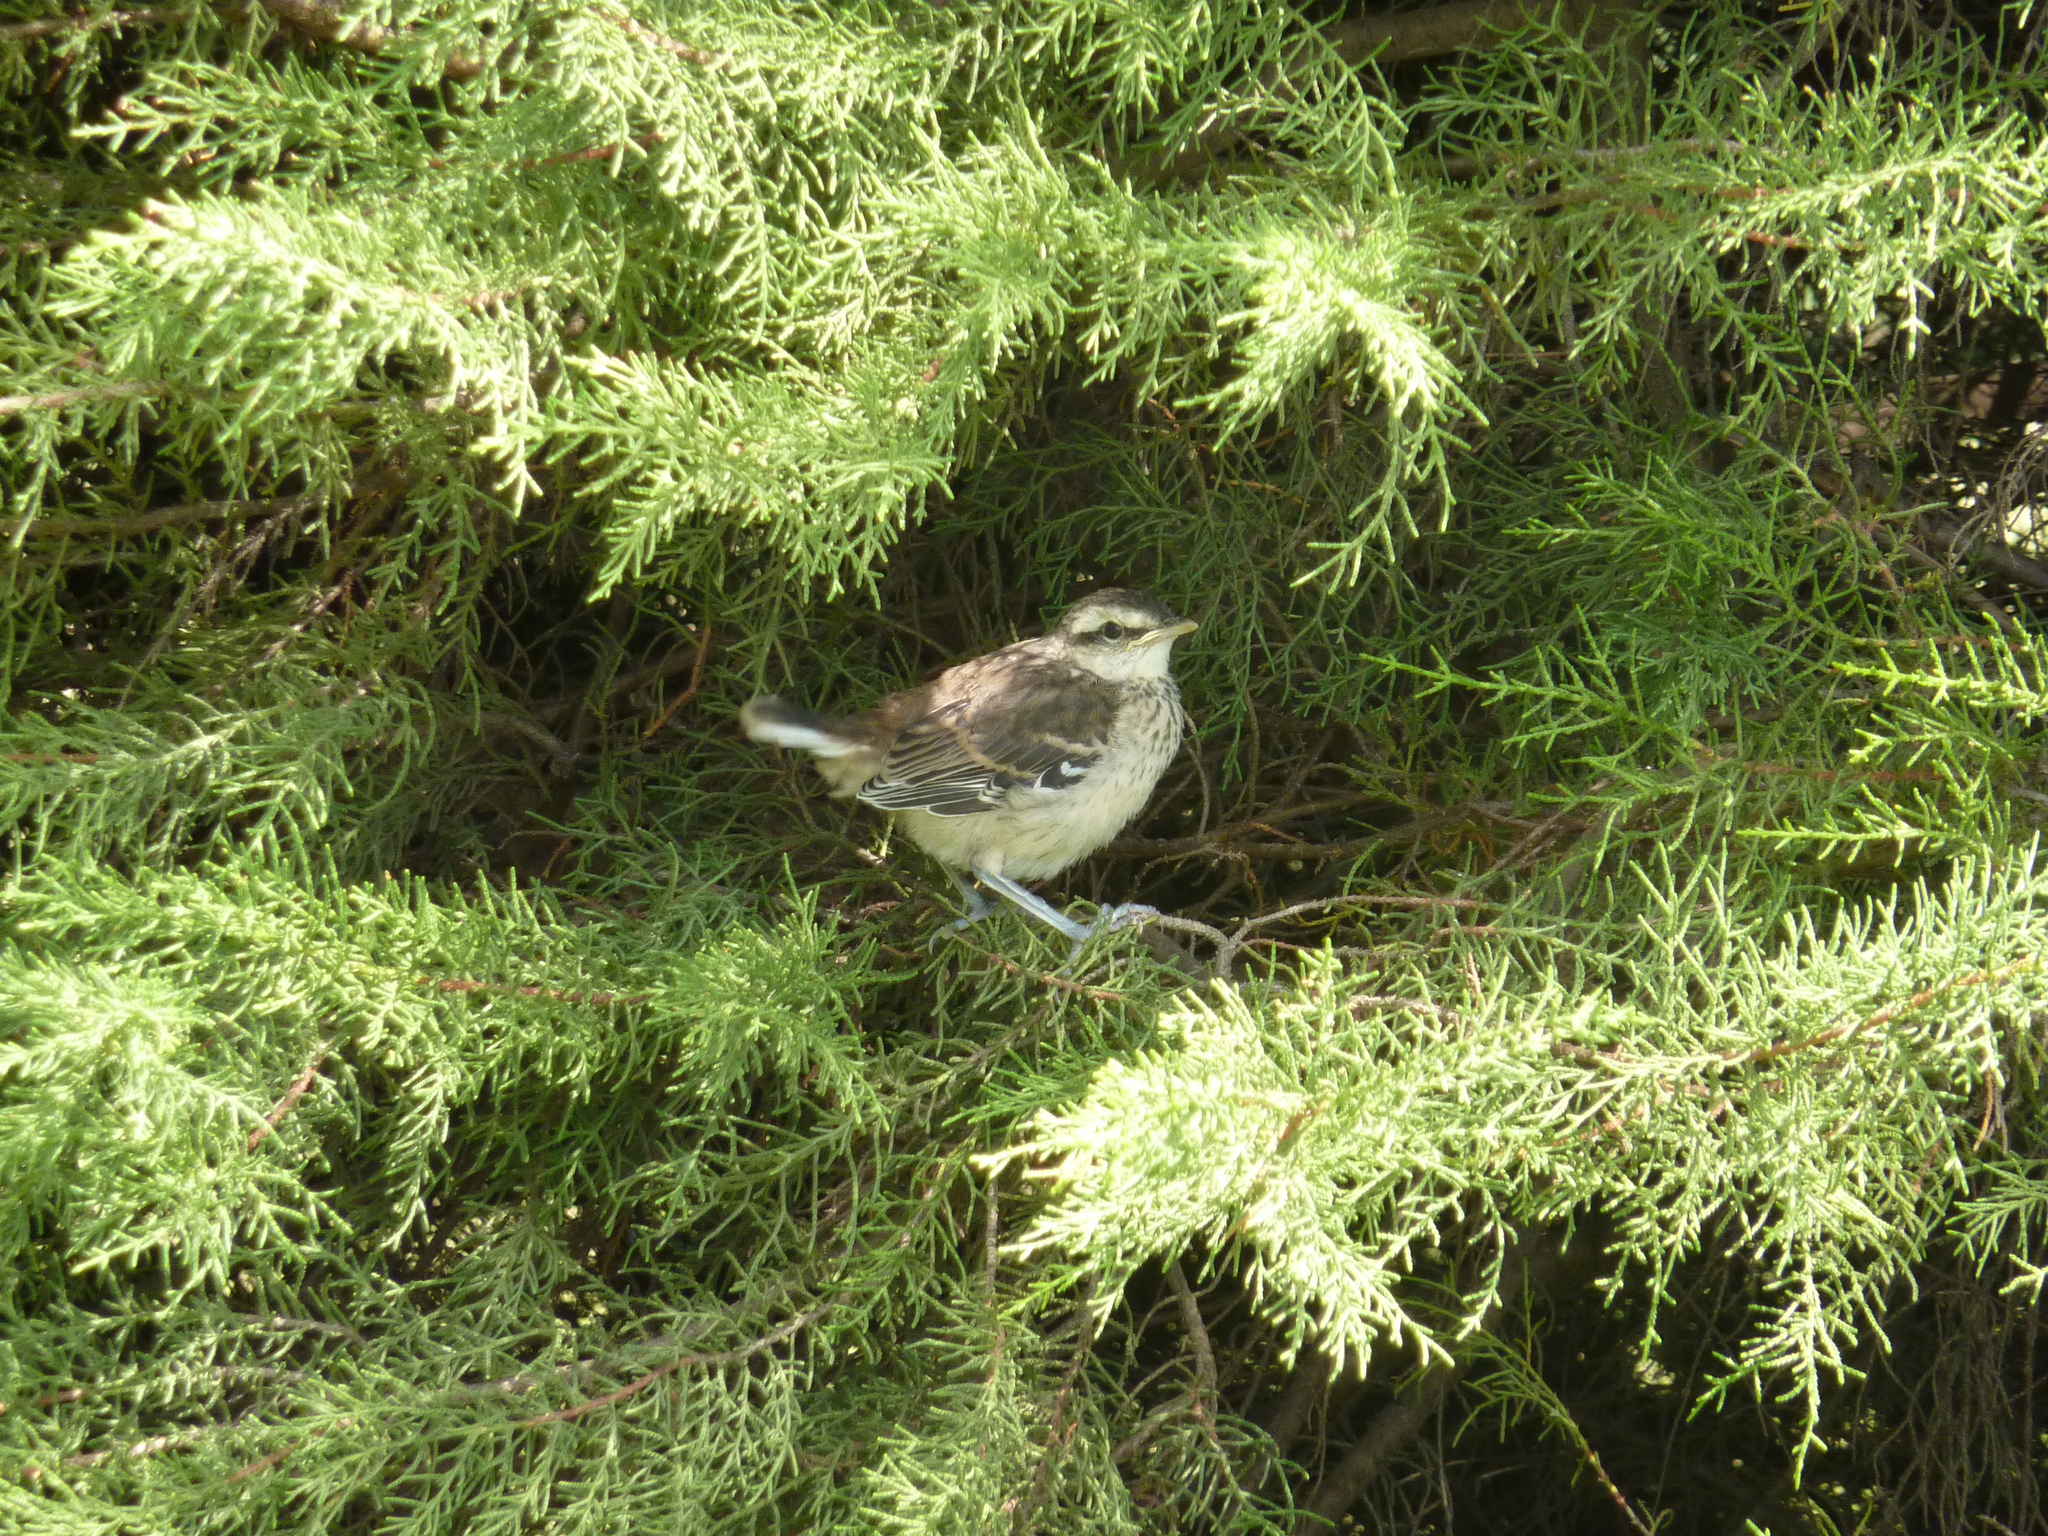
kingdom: Animalia
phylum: Chordata
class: Aves
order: Passeriformes
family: Mimidae
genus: Mimus
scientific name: Mimus saturninus
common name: Chalk-browed mockingbird
